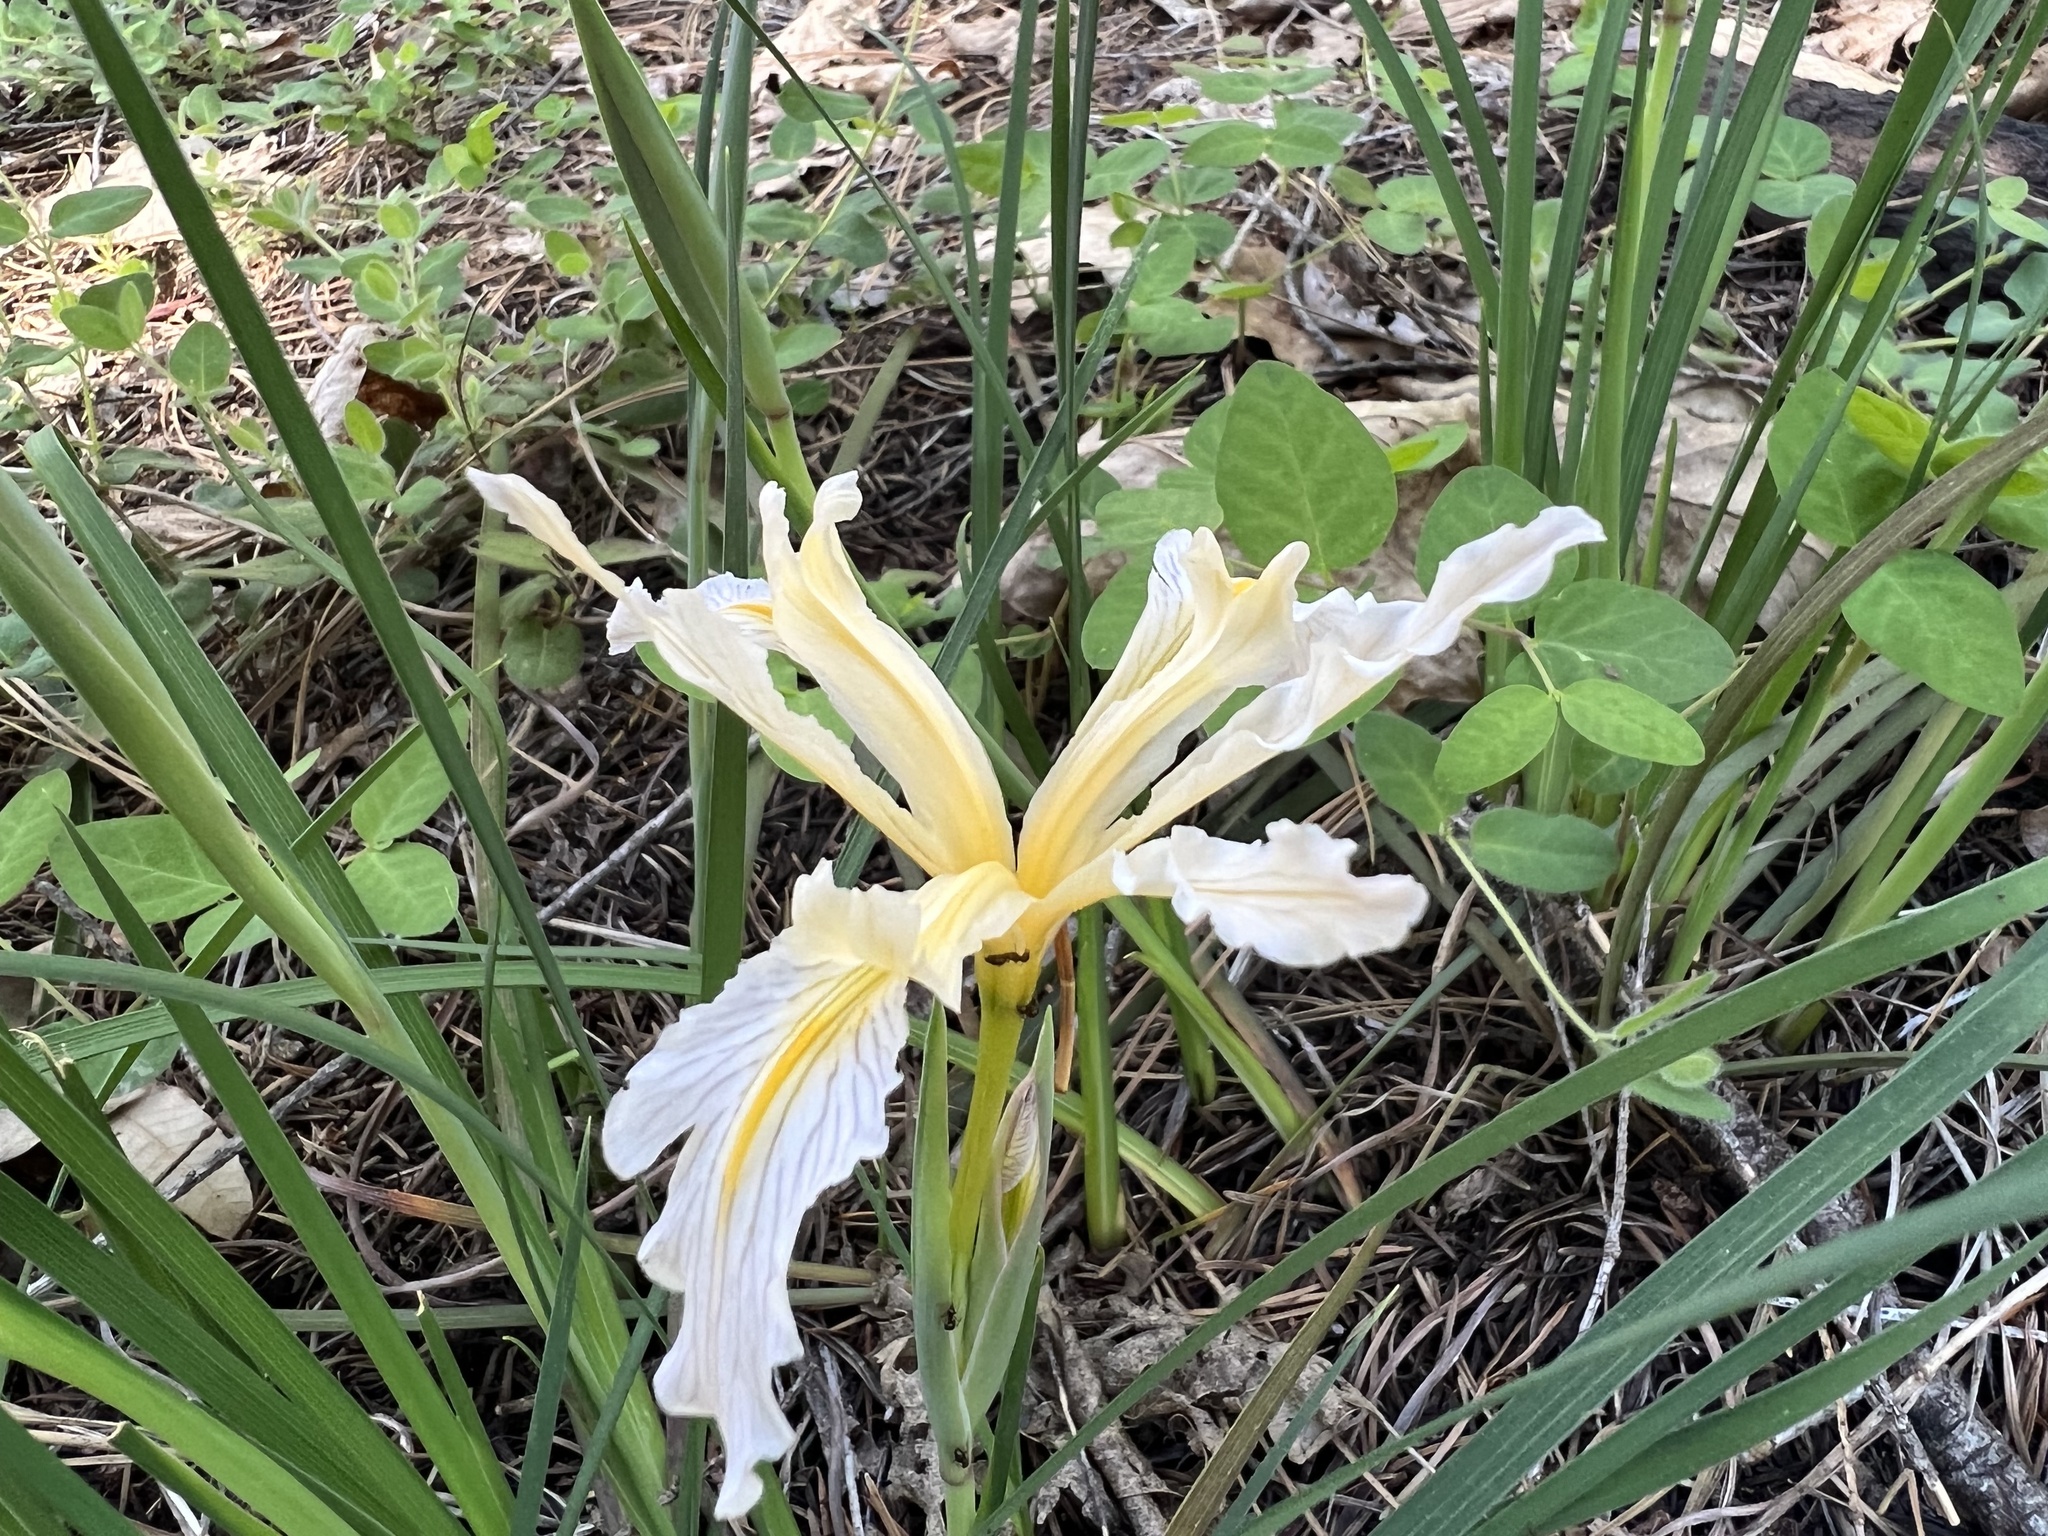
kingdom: Plantae
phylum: Tracheophyta
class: Liliopsida
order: Asparagales
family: Iridaceae
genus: Iris
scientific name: Iris macrosiphon
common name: Ground iris
